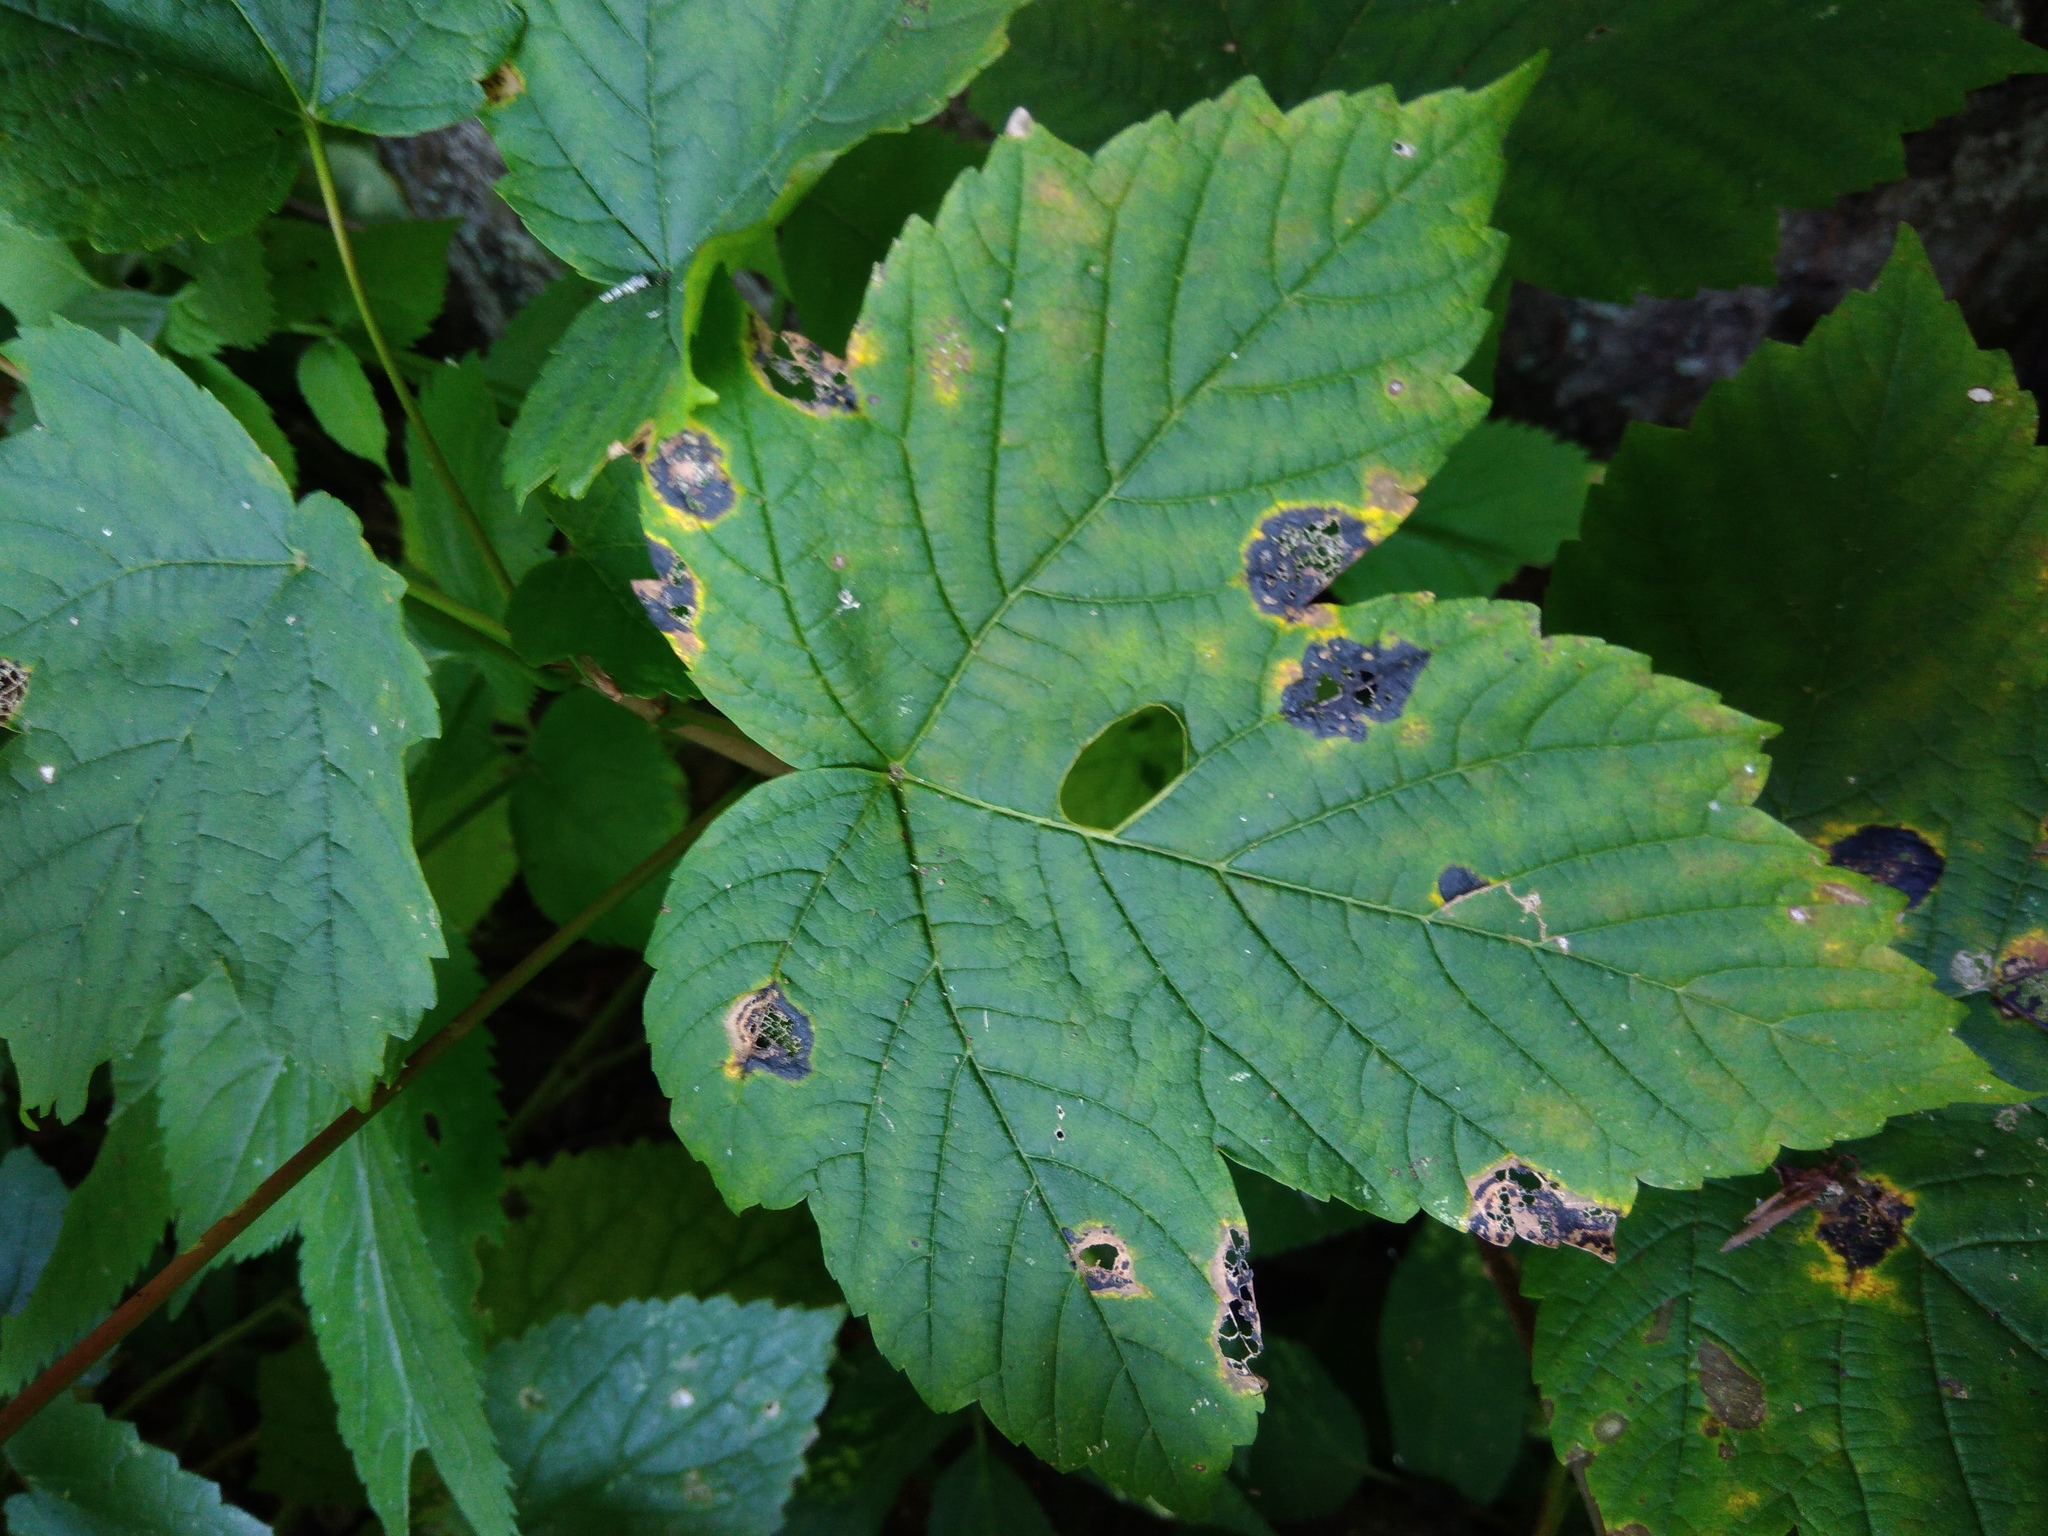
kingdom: Fungi
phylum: Ascomycota
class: Leotiomycetes
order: Rhytismatales
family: Rhytismataceae
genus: Rhytisma
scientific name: Rhytisma acerinum
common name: European tar spot
